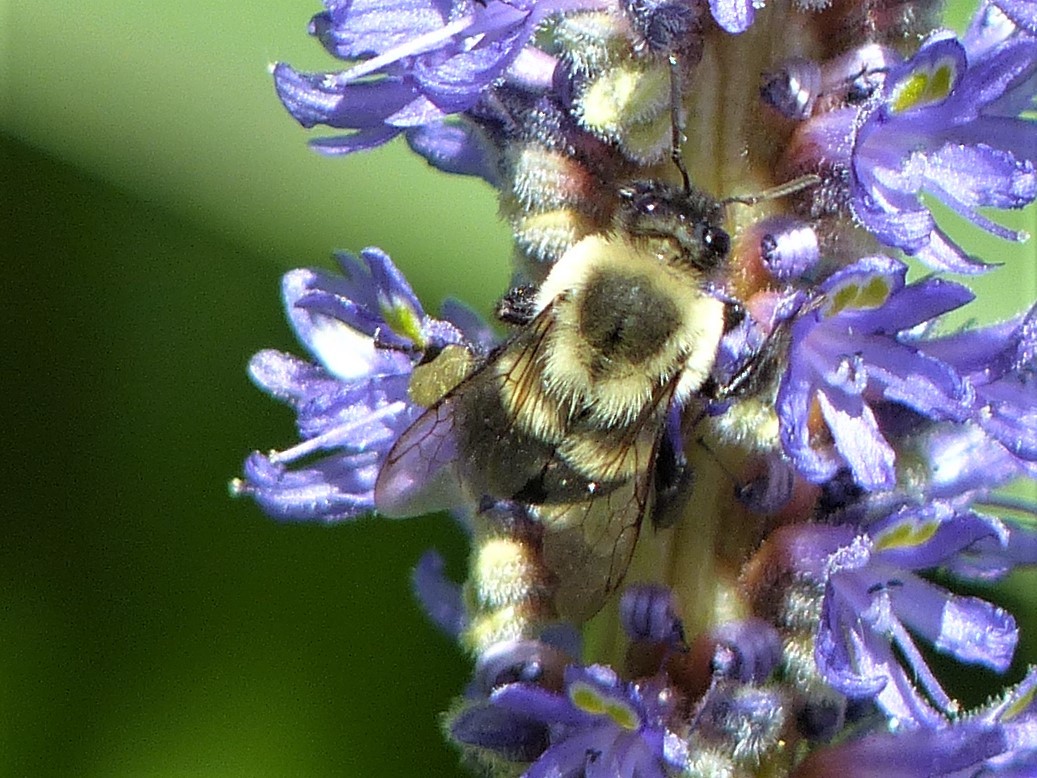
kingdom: Animalia
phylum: Arthropoda
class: Insecta
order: Hymenoptera
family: Apidae
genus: Bombus
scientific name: Bombus impatiens
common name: Common eastern bumble bee
